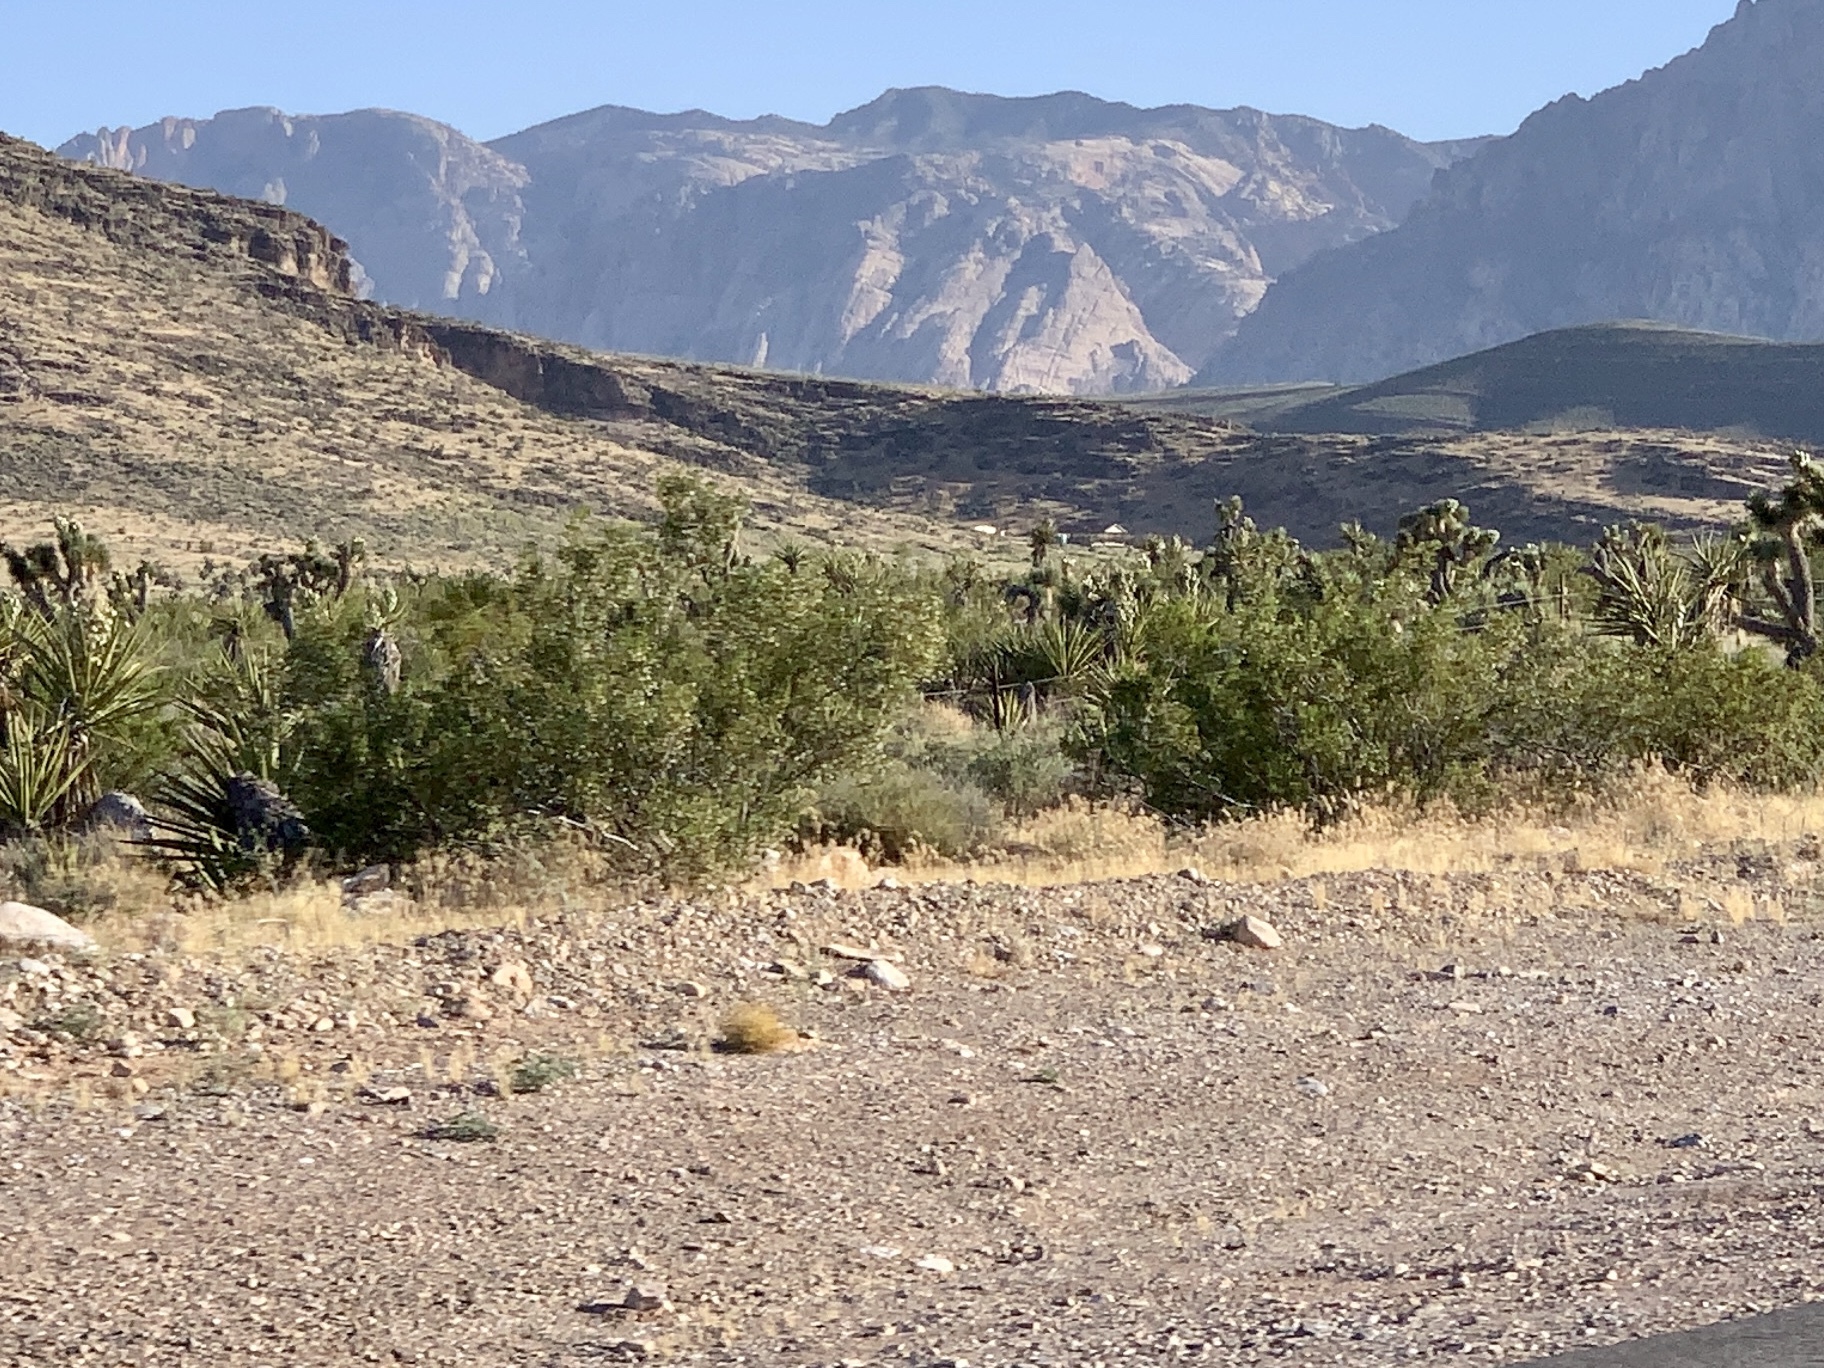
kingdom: Plantae
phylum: Tracheophyta
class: Magnoliopsida
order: Zygophyllales
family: Zygophyllaceae
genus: Larrea
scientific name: Larrea tridentata
